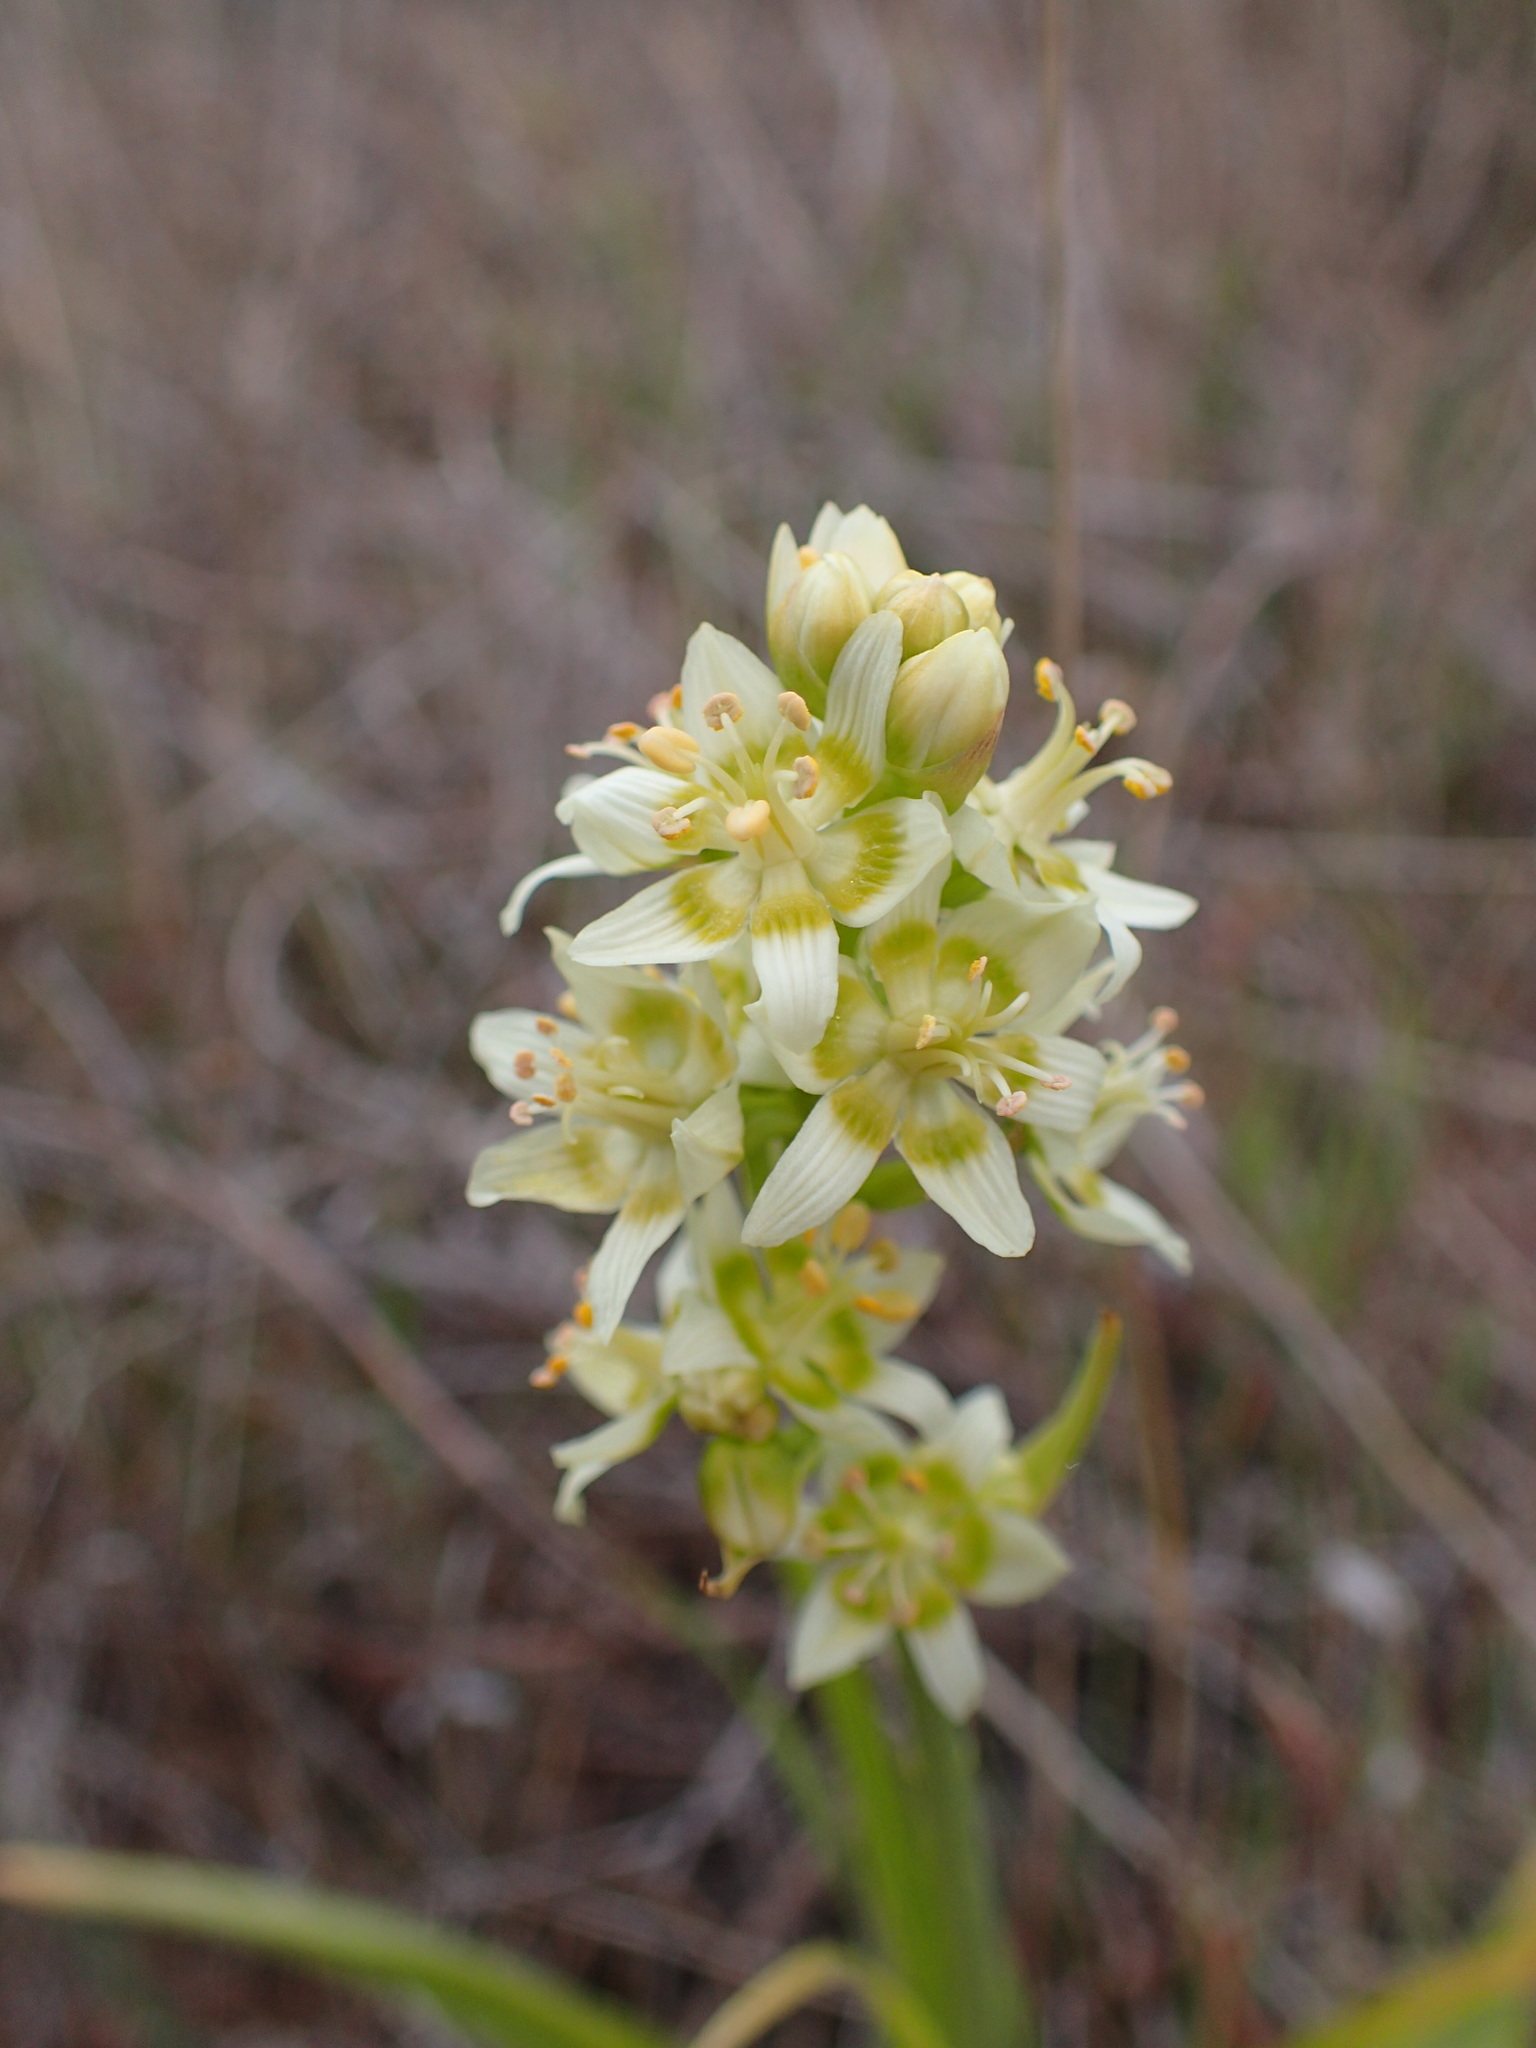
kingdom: Plantae
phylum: Tracheophyta
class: Liliopsida
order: Liliales
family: Melanthiaceae
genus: Toxicoscordion
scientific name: Toxicoscordion fremontii
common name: Fremont's death camas
